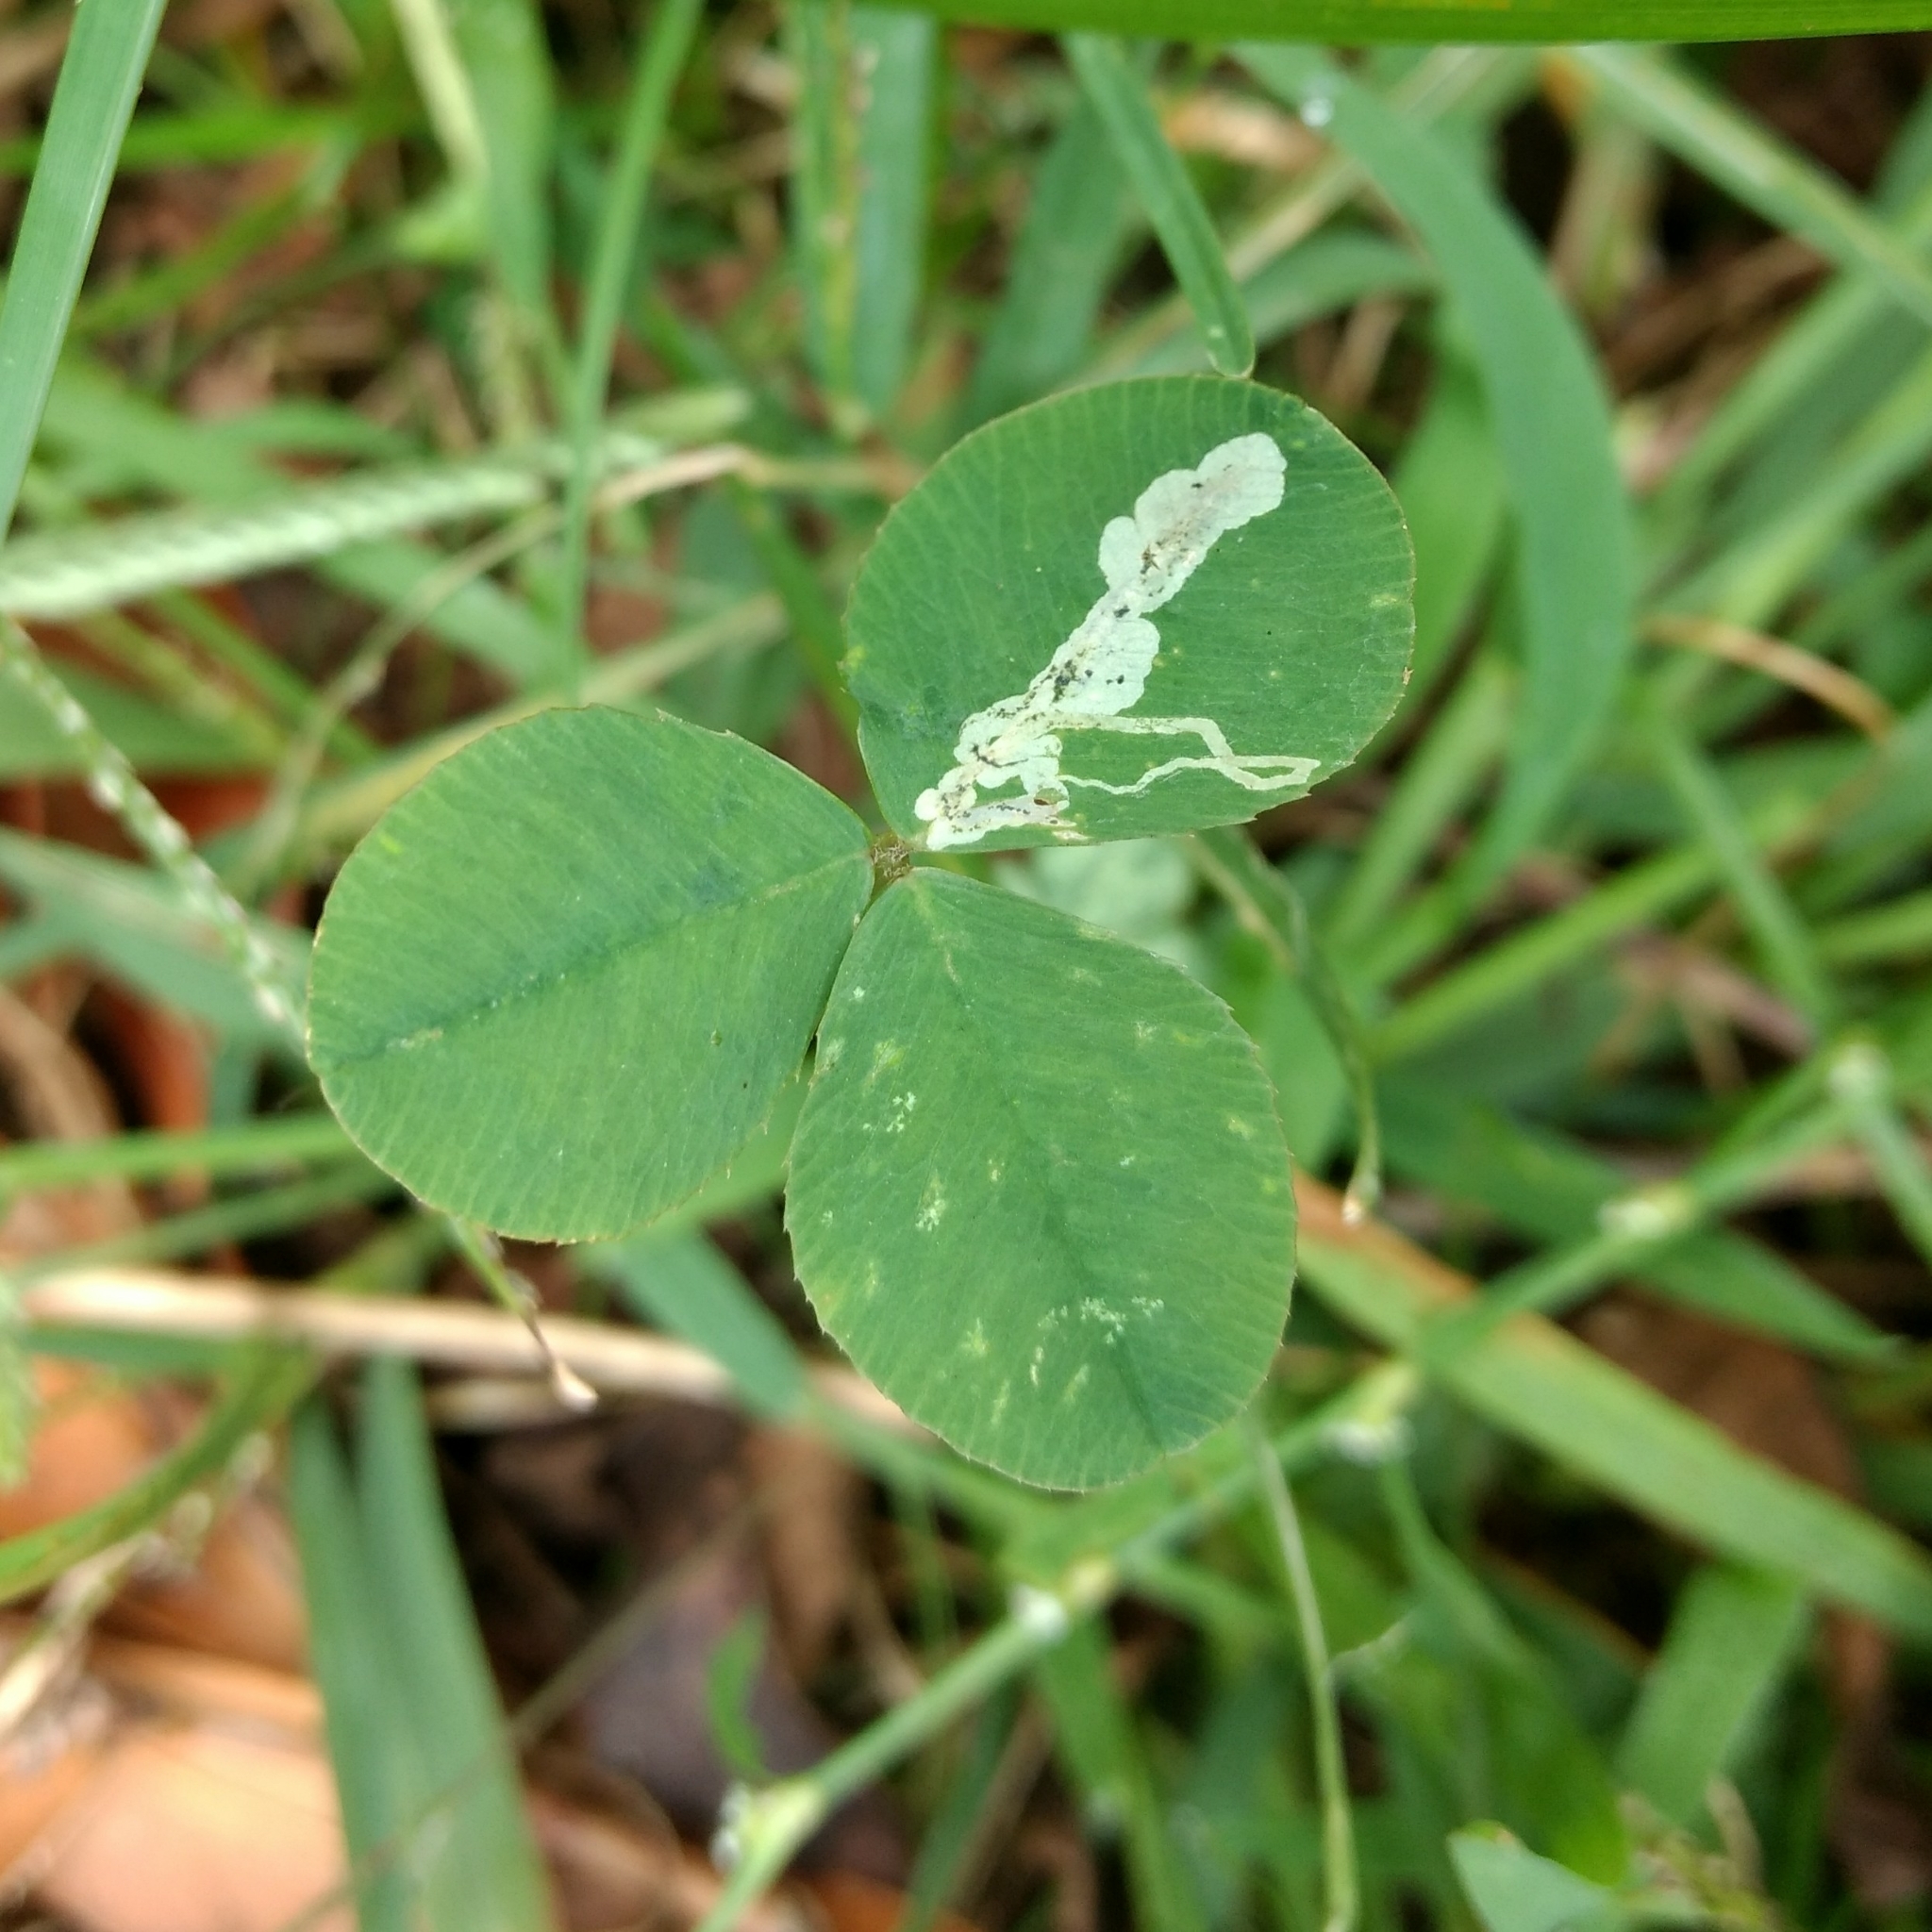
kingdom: Plantae
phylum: Tracheophyta
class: Magnoliopsida
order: Fabales
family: Fabaceae
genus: Trifolium
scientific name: Trifolium repens
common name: White clover
